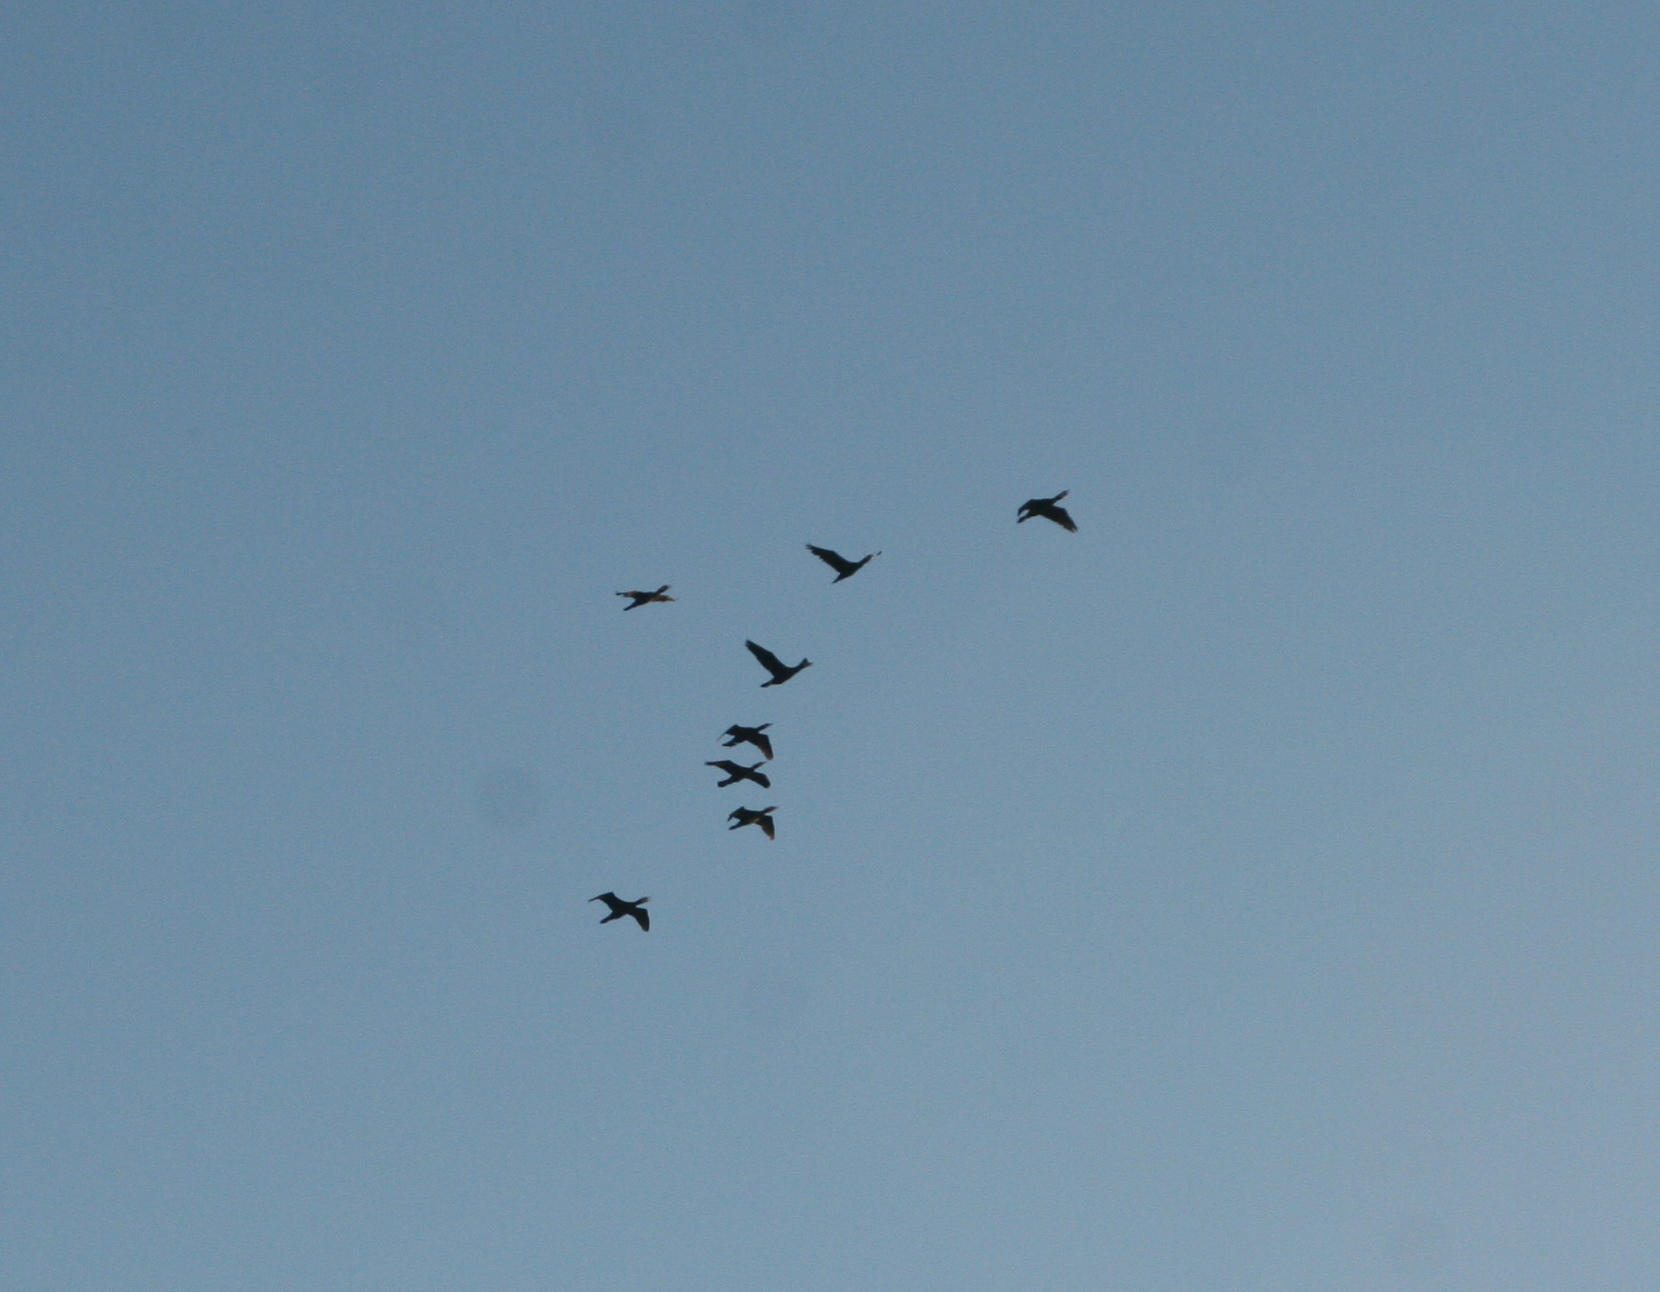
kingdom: Animalia
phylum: Chordata
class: Aves
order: Suliformes
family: Phalacrocoracidae
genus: Phalacrocorax
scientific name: Phalacrocorax carbo
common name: Great cormorant
